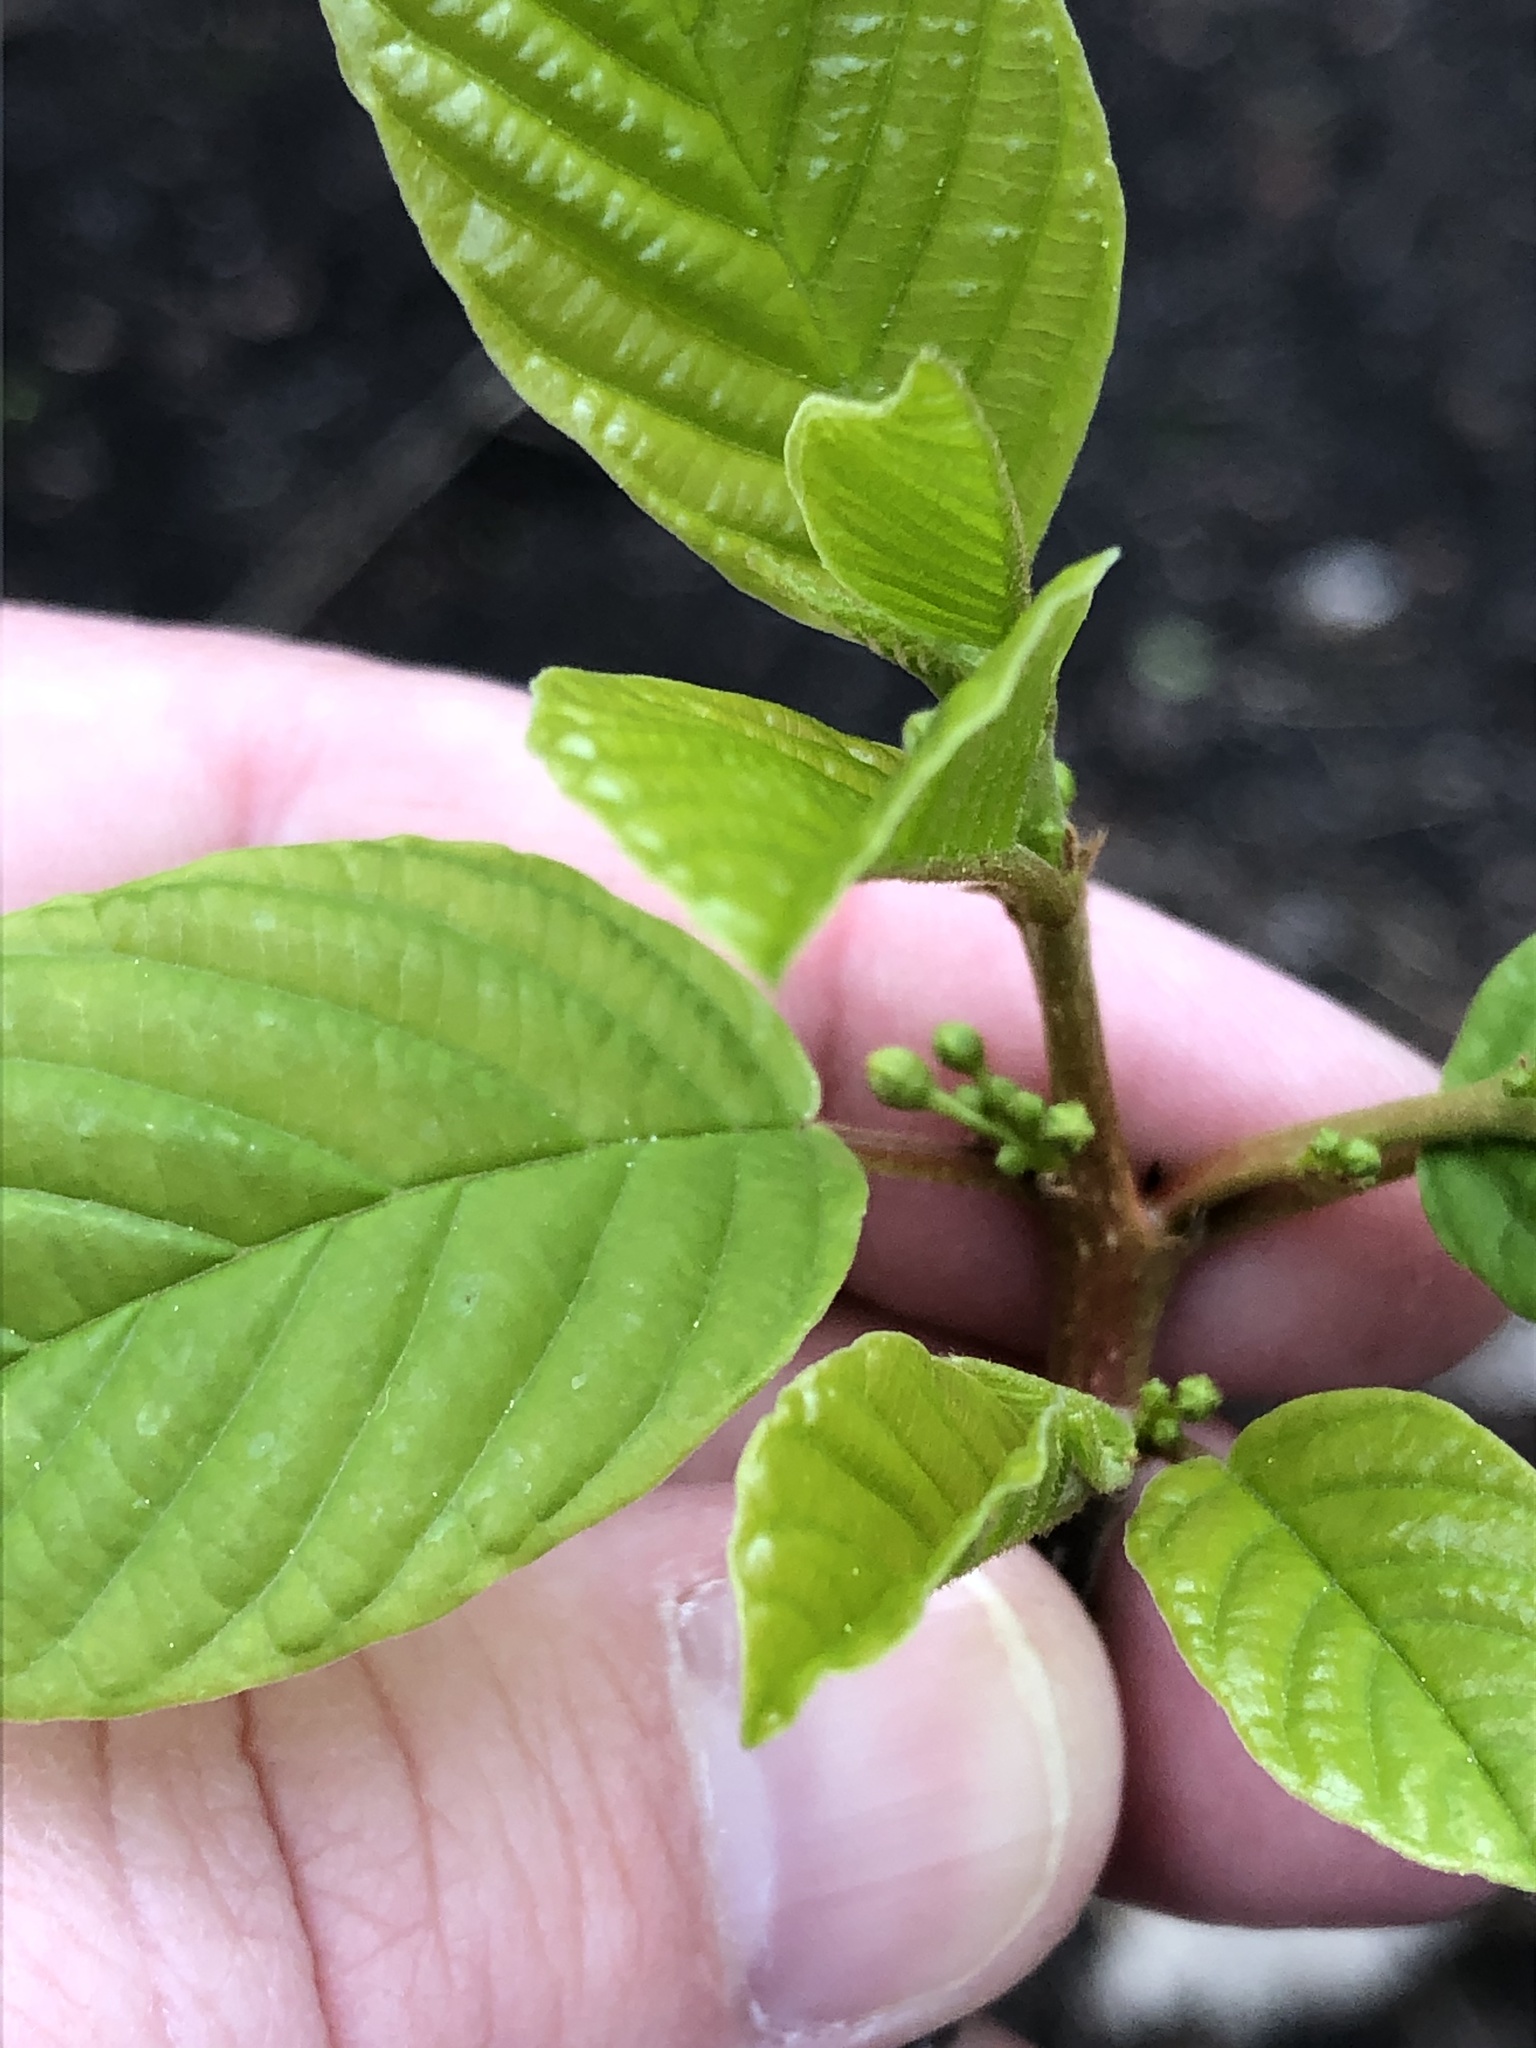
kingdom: Plantae
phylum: Tracheophyta
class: Magnoliopsida
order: Rosales
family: Rhamnaceae
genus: Frangula
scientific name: Frangula alnus
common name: Alder buckthorn
